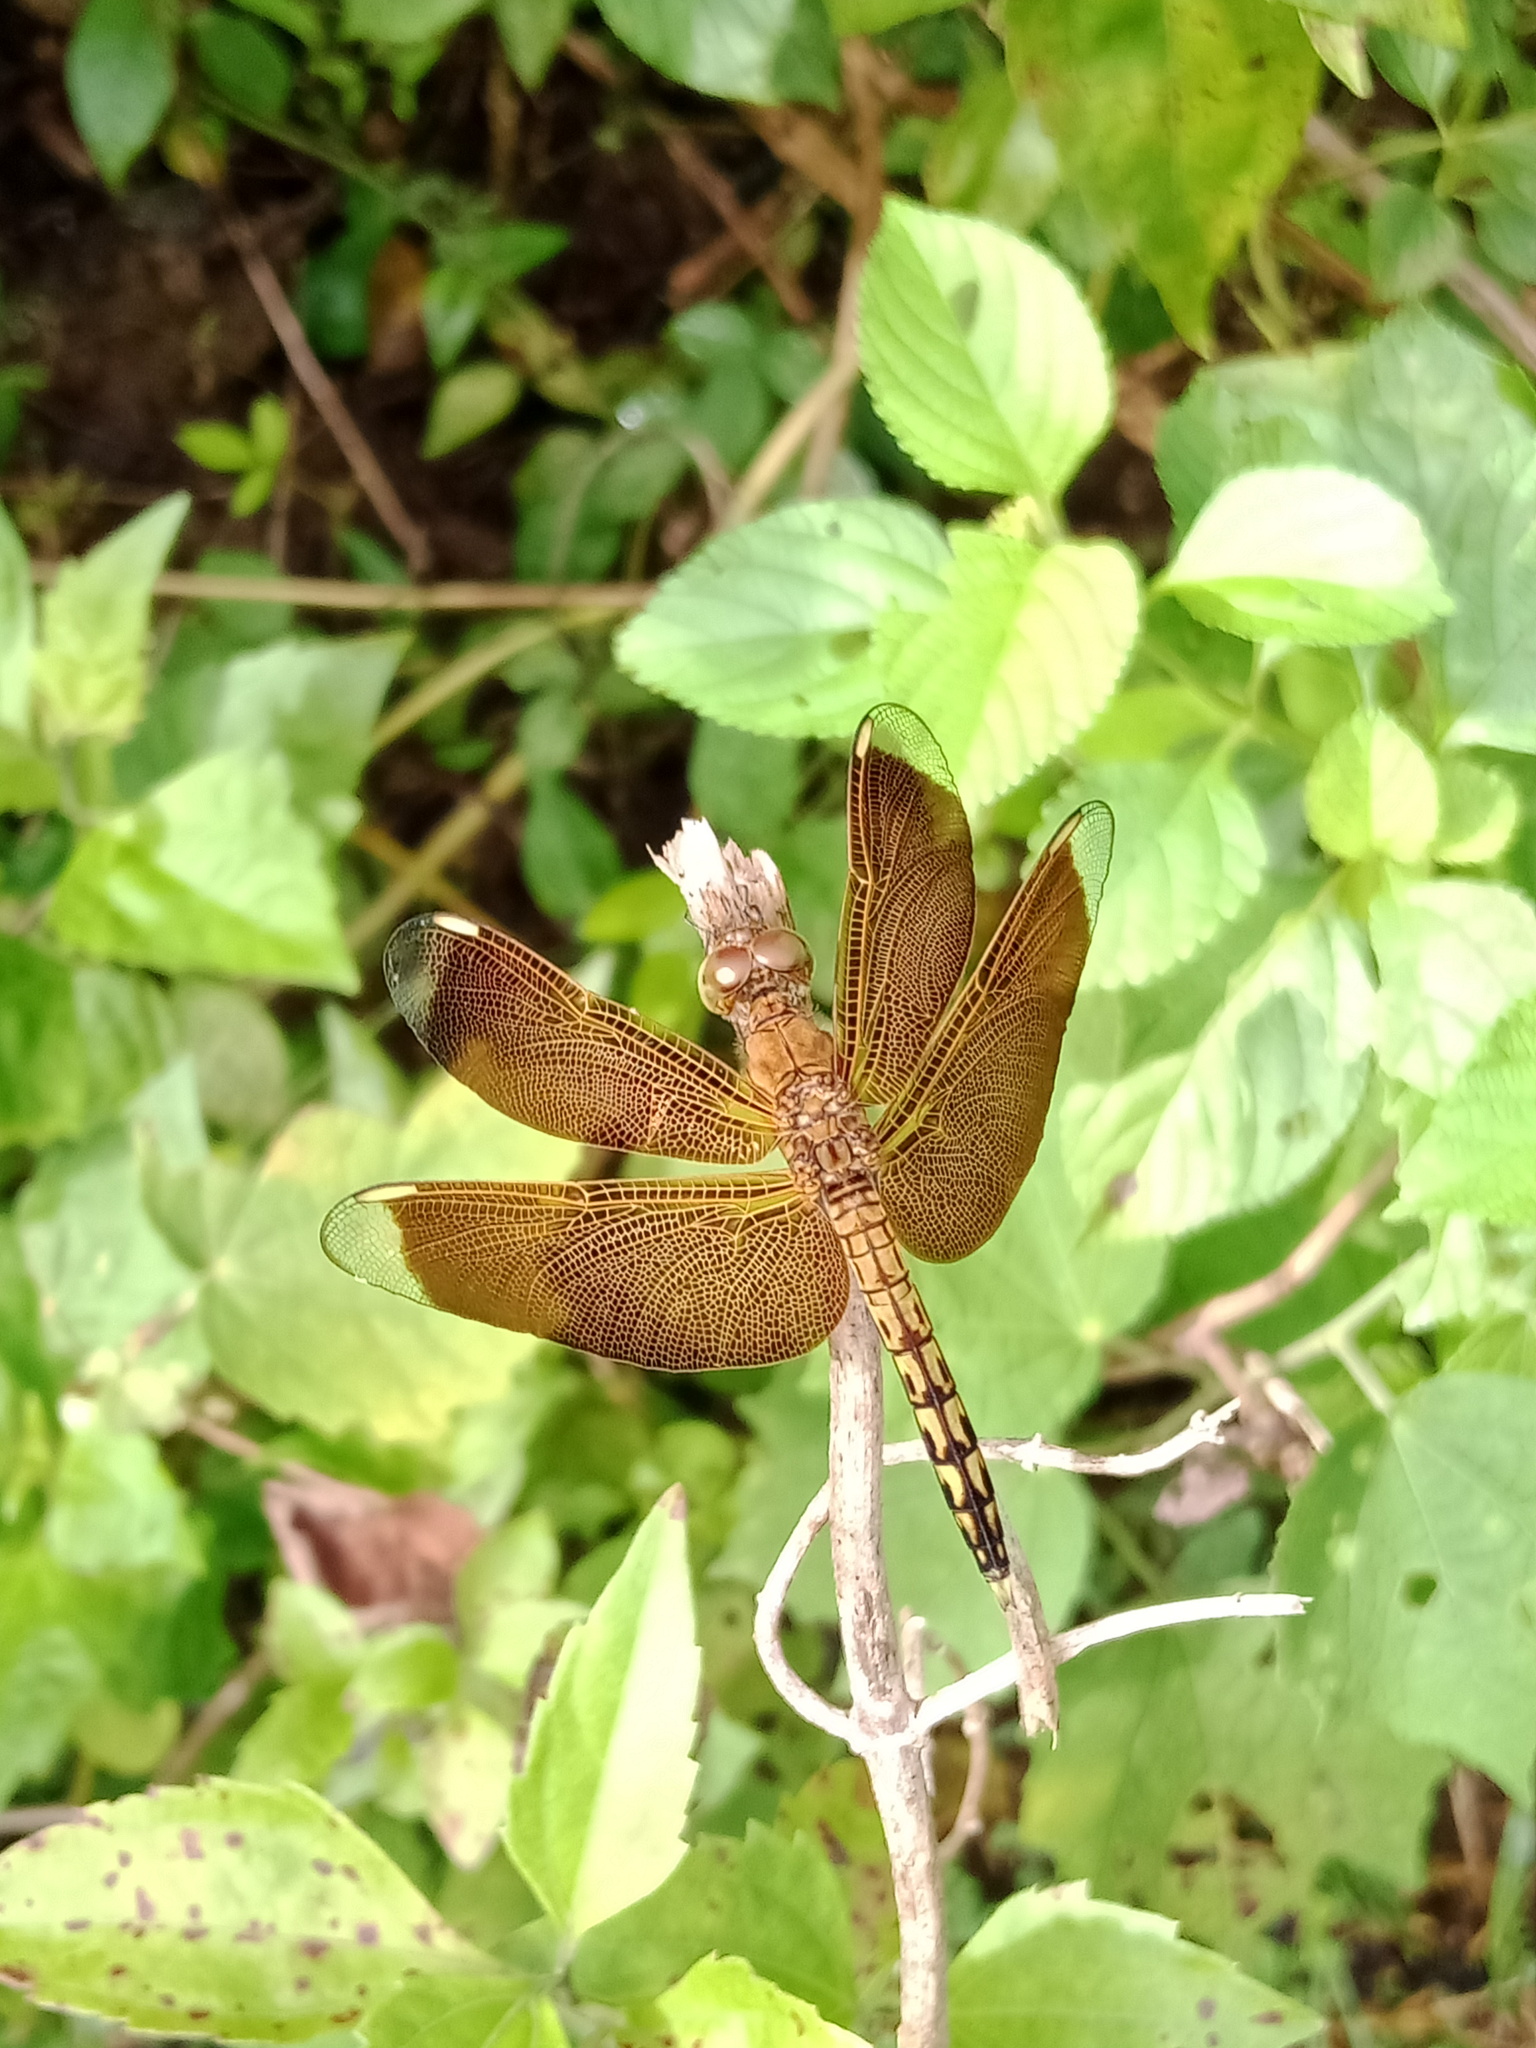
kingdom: Animalia
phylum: Arthropoda
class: Insecta
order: Odonata
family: Libellulidae
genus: Neurothemis
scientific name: Neurothemis terminata
